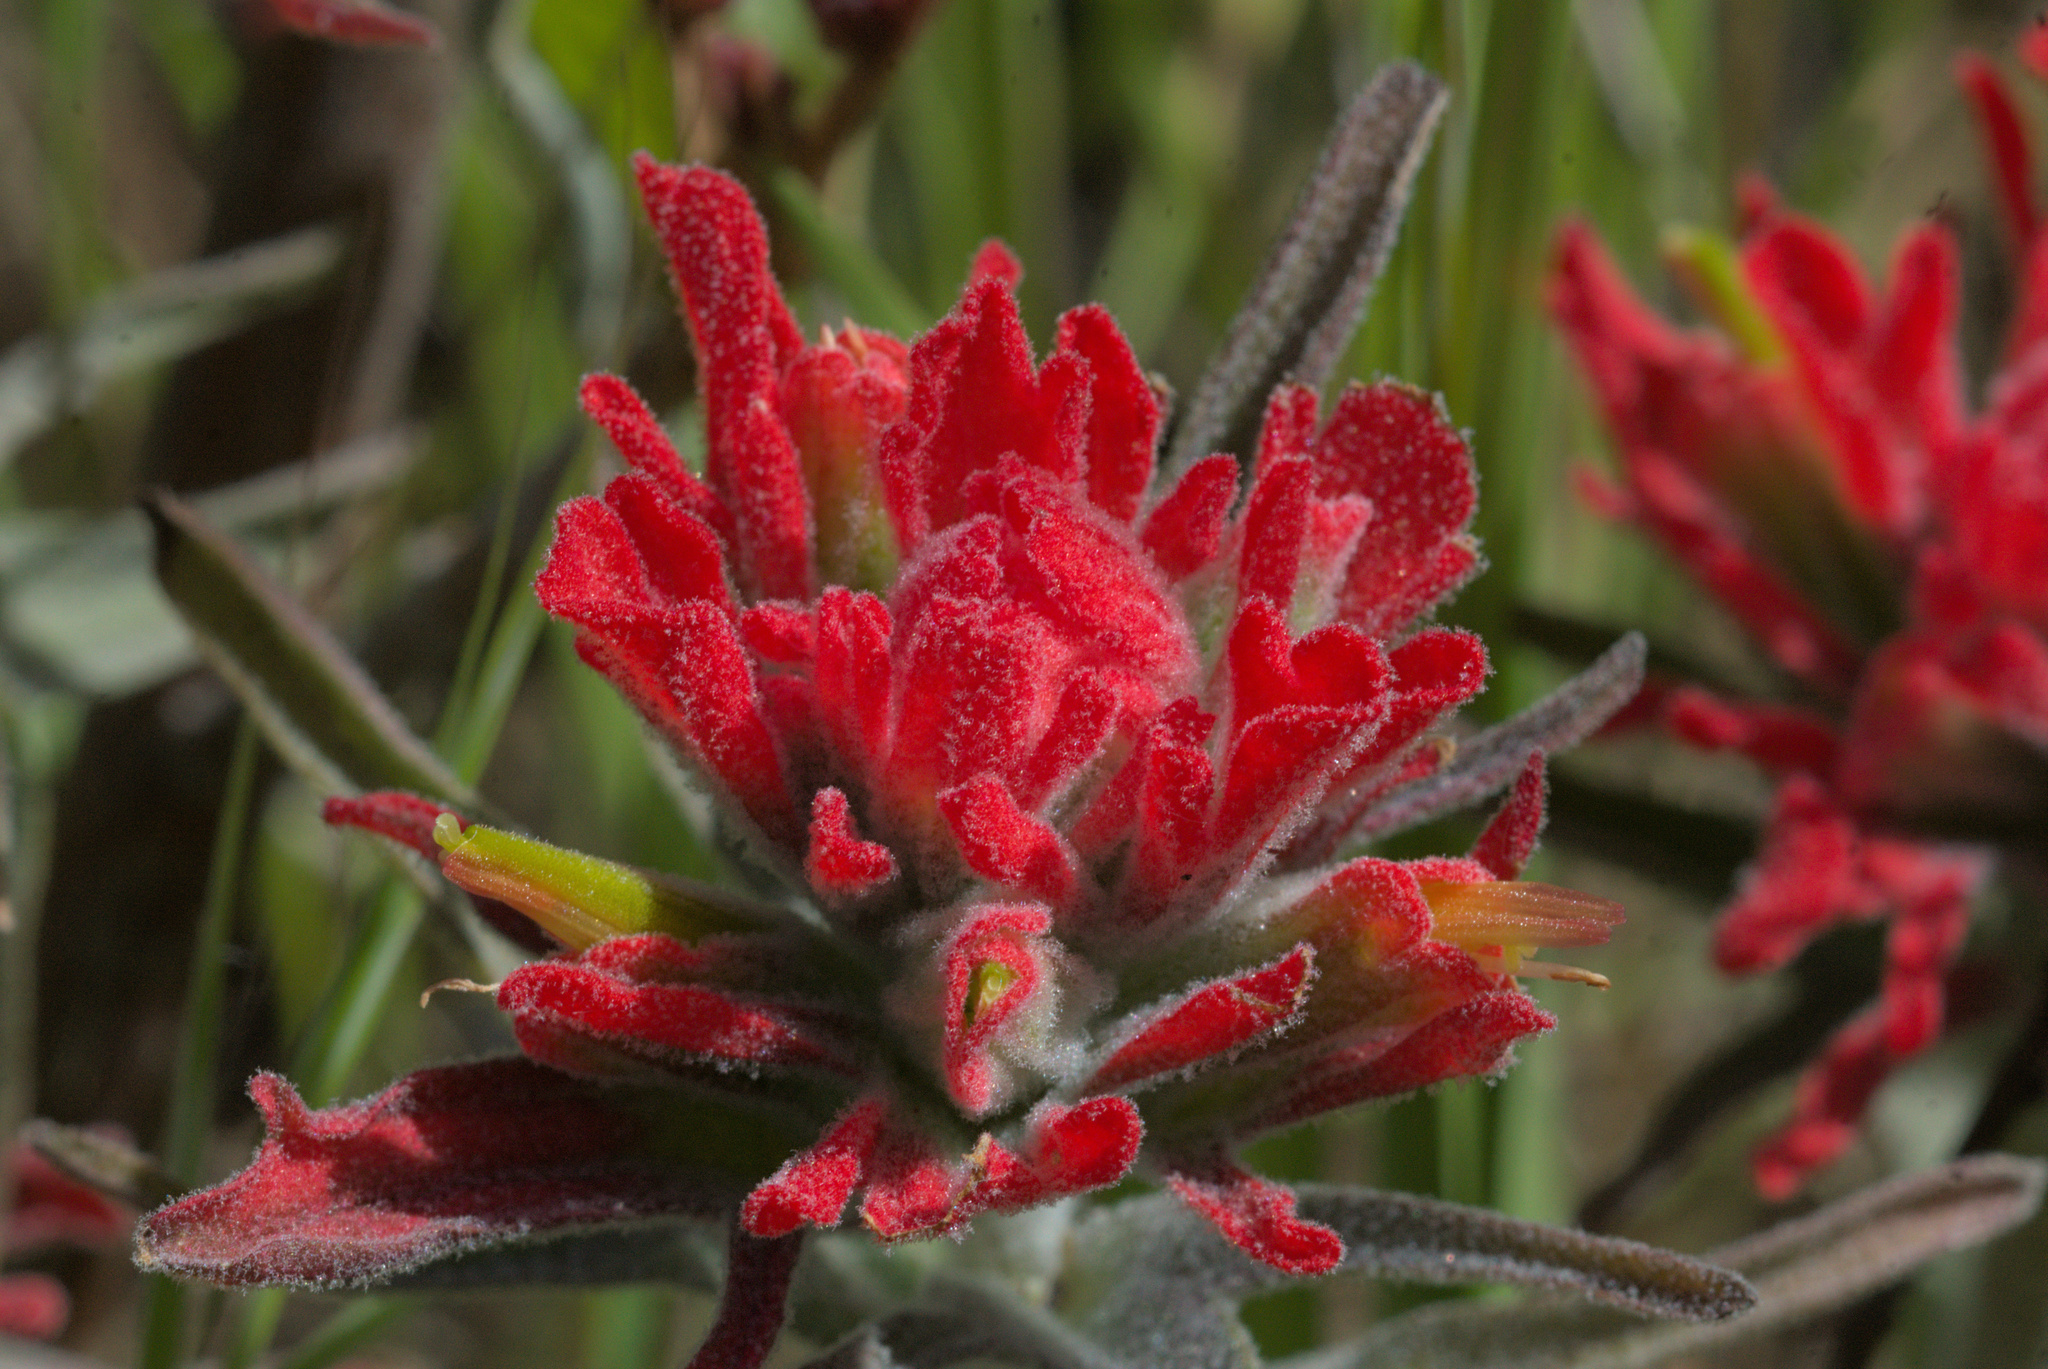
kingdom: Plantae
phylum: Tracheophyta
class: Magnoliopsida
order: Lamiales
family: Orobanchaceae
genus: Castilleja
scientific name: Castilleja foliolosa
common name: Woolly indian paintbrush
